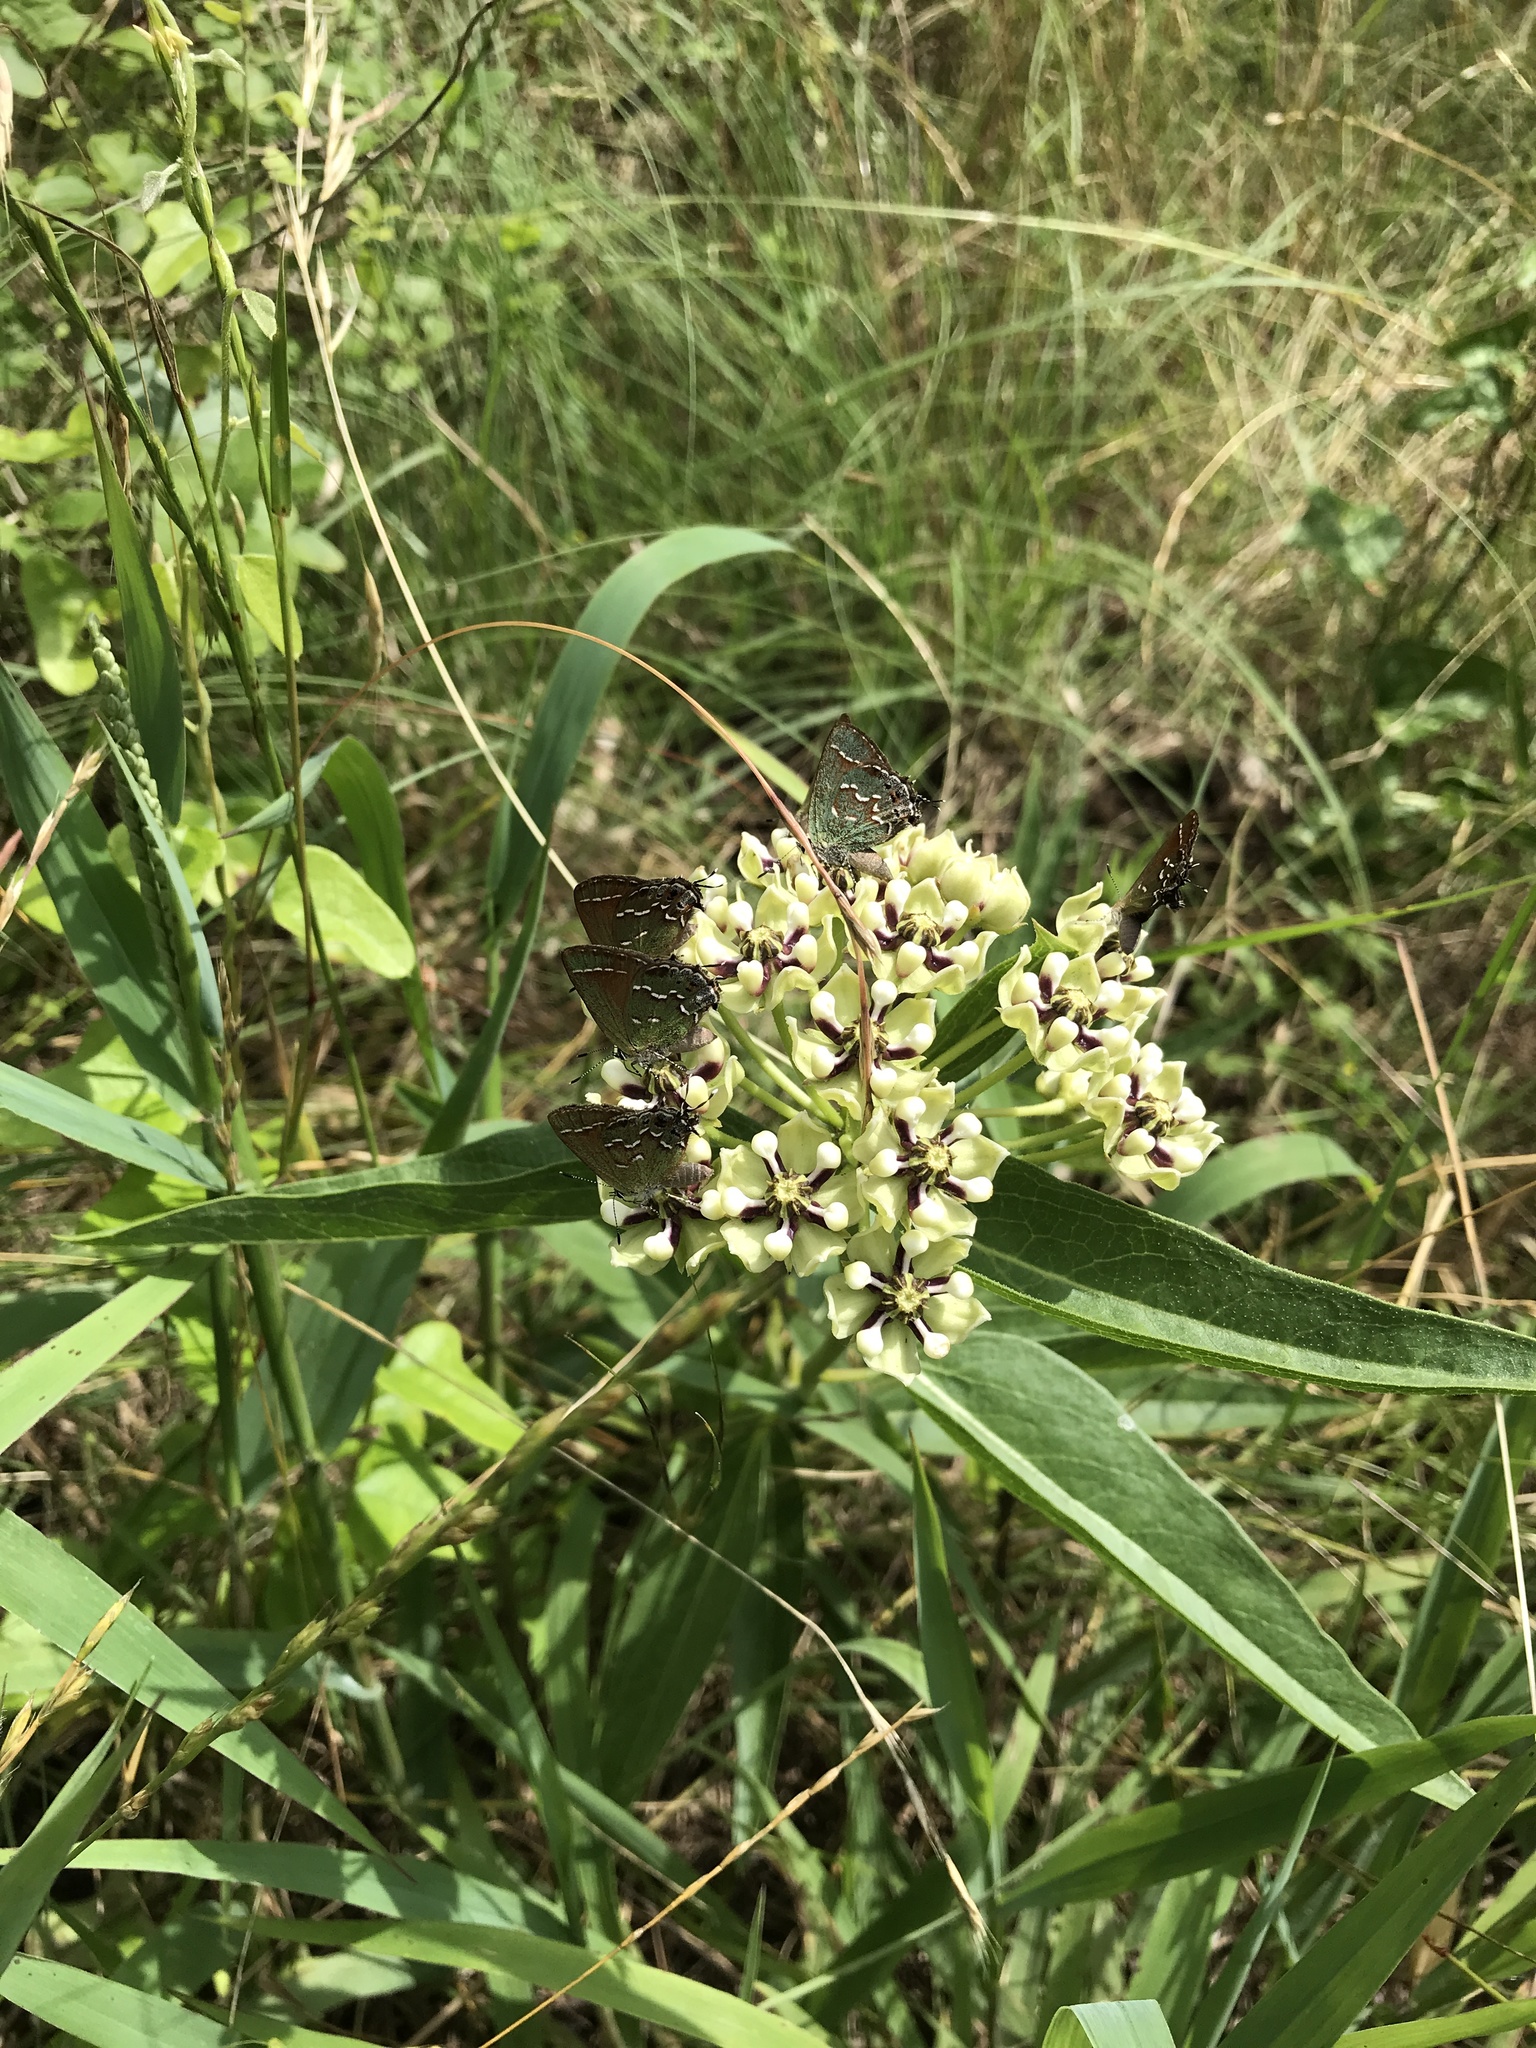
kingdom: Animalia
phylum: Arthropoda
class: Insecta
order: Lepidoptera
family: Lycaenidae
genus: Mitoura
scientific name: Mitoura gryneus
